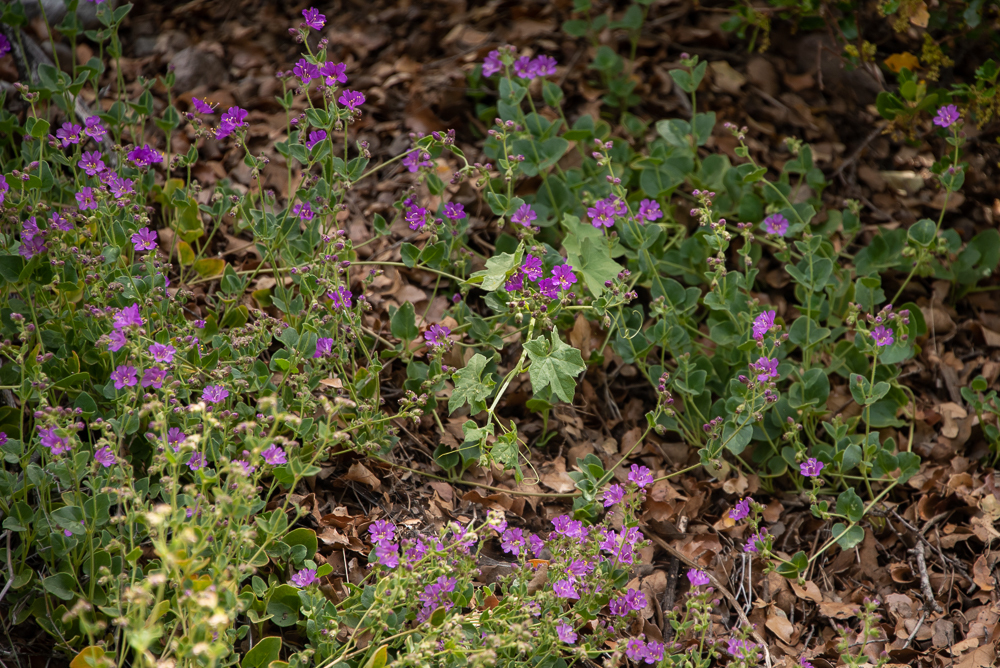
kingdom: Plantae
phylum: Tracheophyta
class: Magnoliopsida
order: Caryophyllales
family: Nyctaginaceae
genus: Mirabilis
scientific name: Mirabilis laevis
